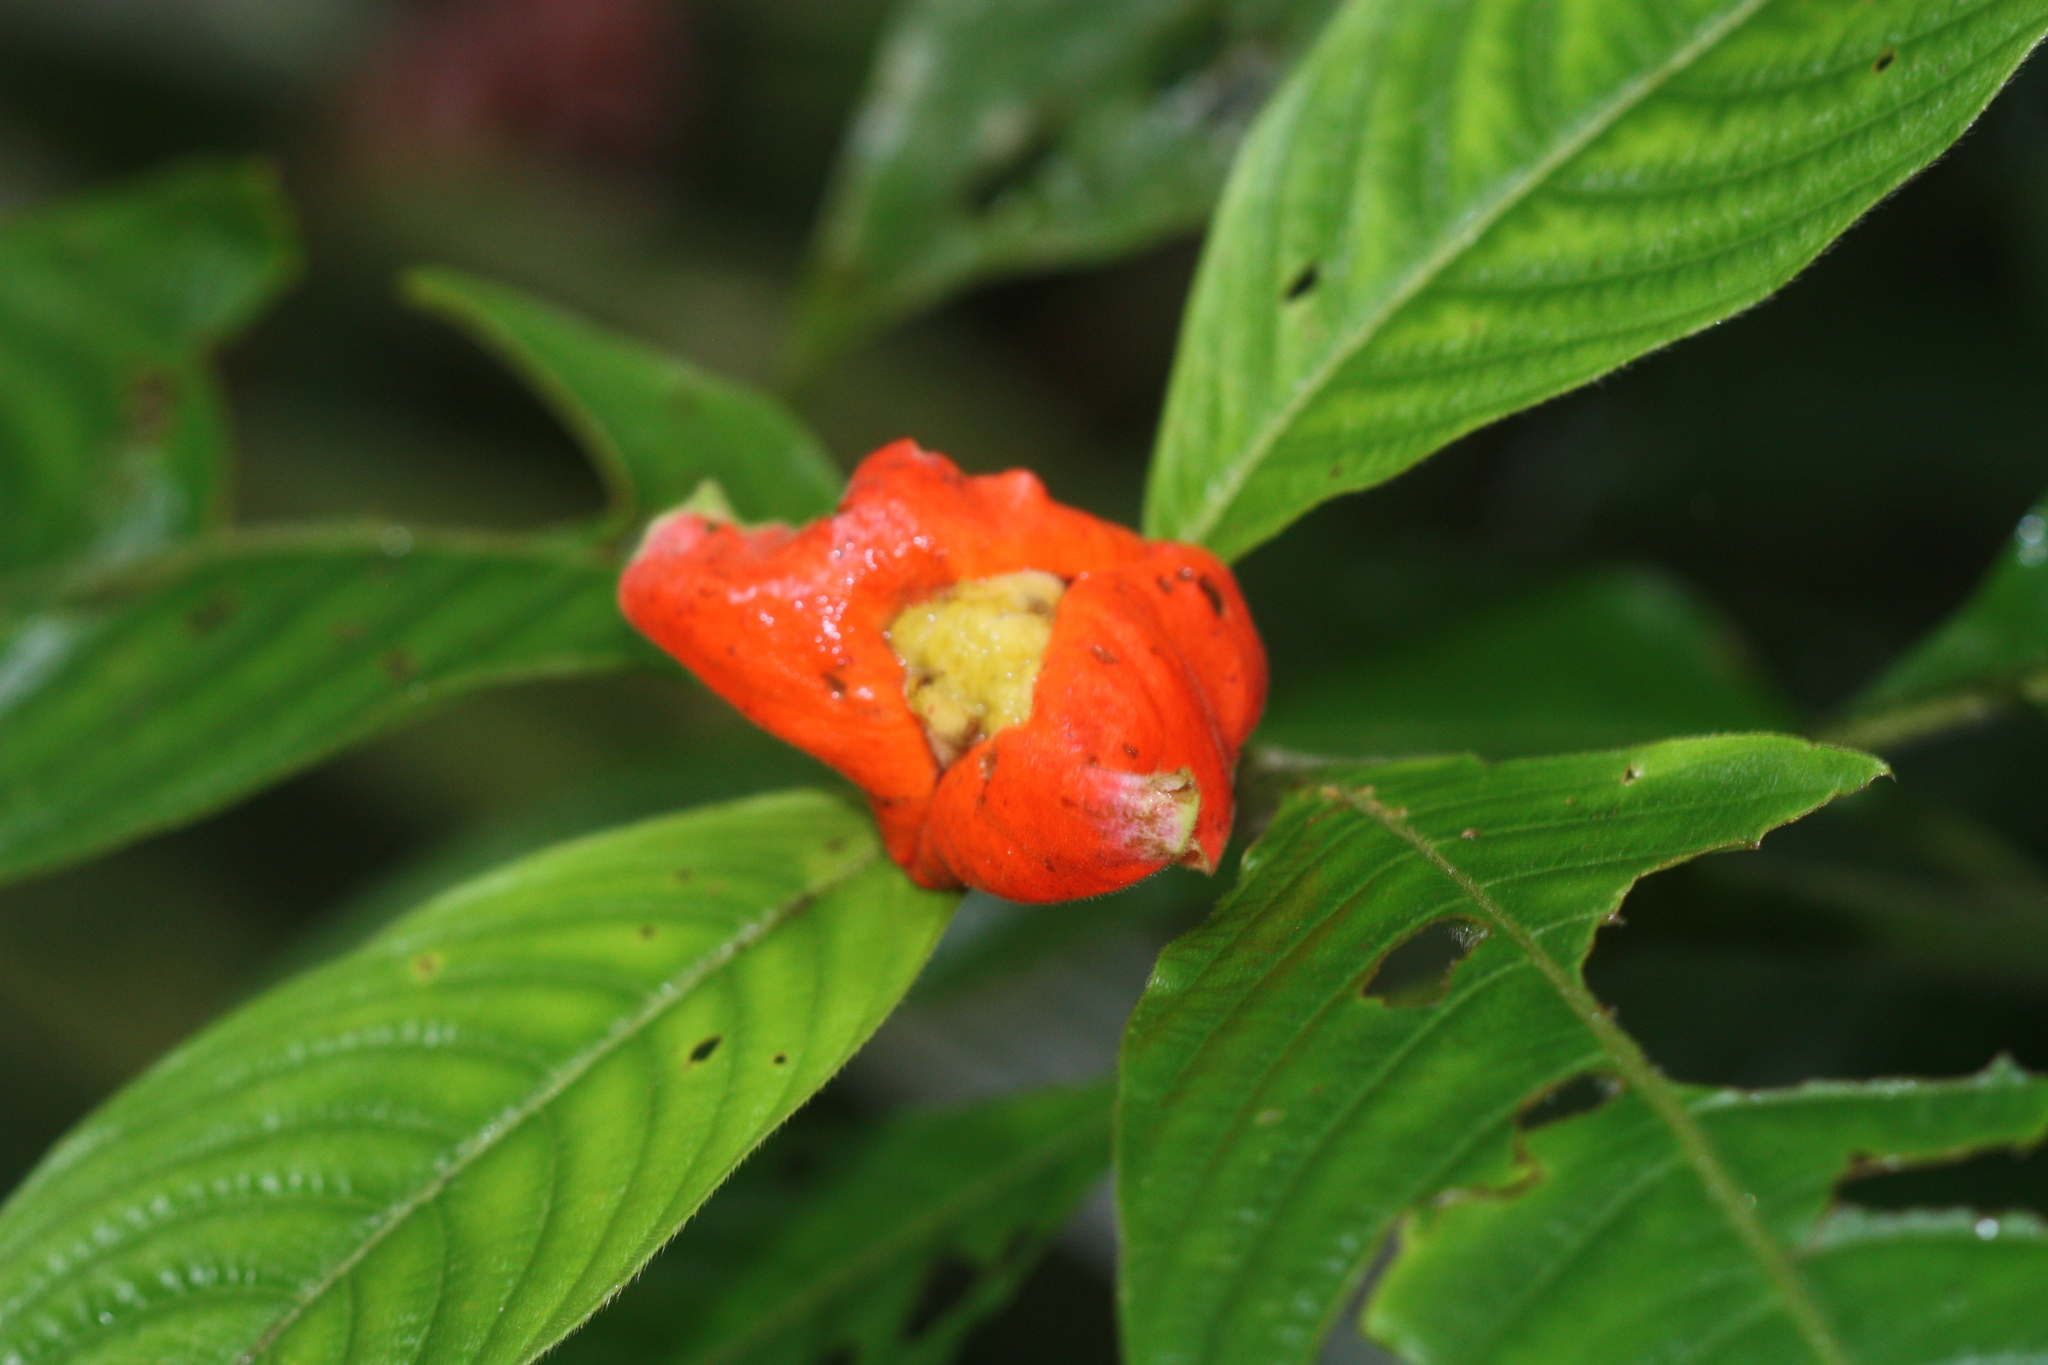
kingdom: Plantae
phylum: Tracheophyta
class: Magnoliopsida
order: Gentianales
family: Rubiaceae
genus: Palicourea
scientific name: Palicourea tomentosa
